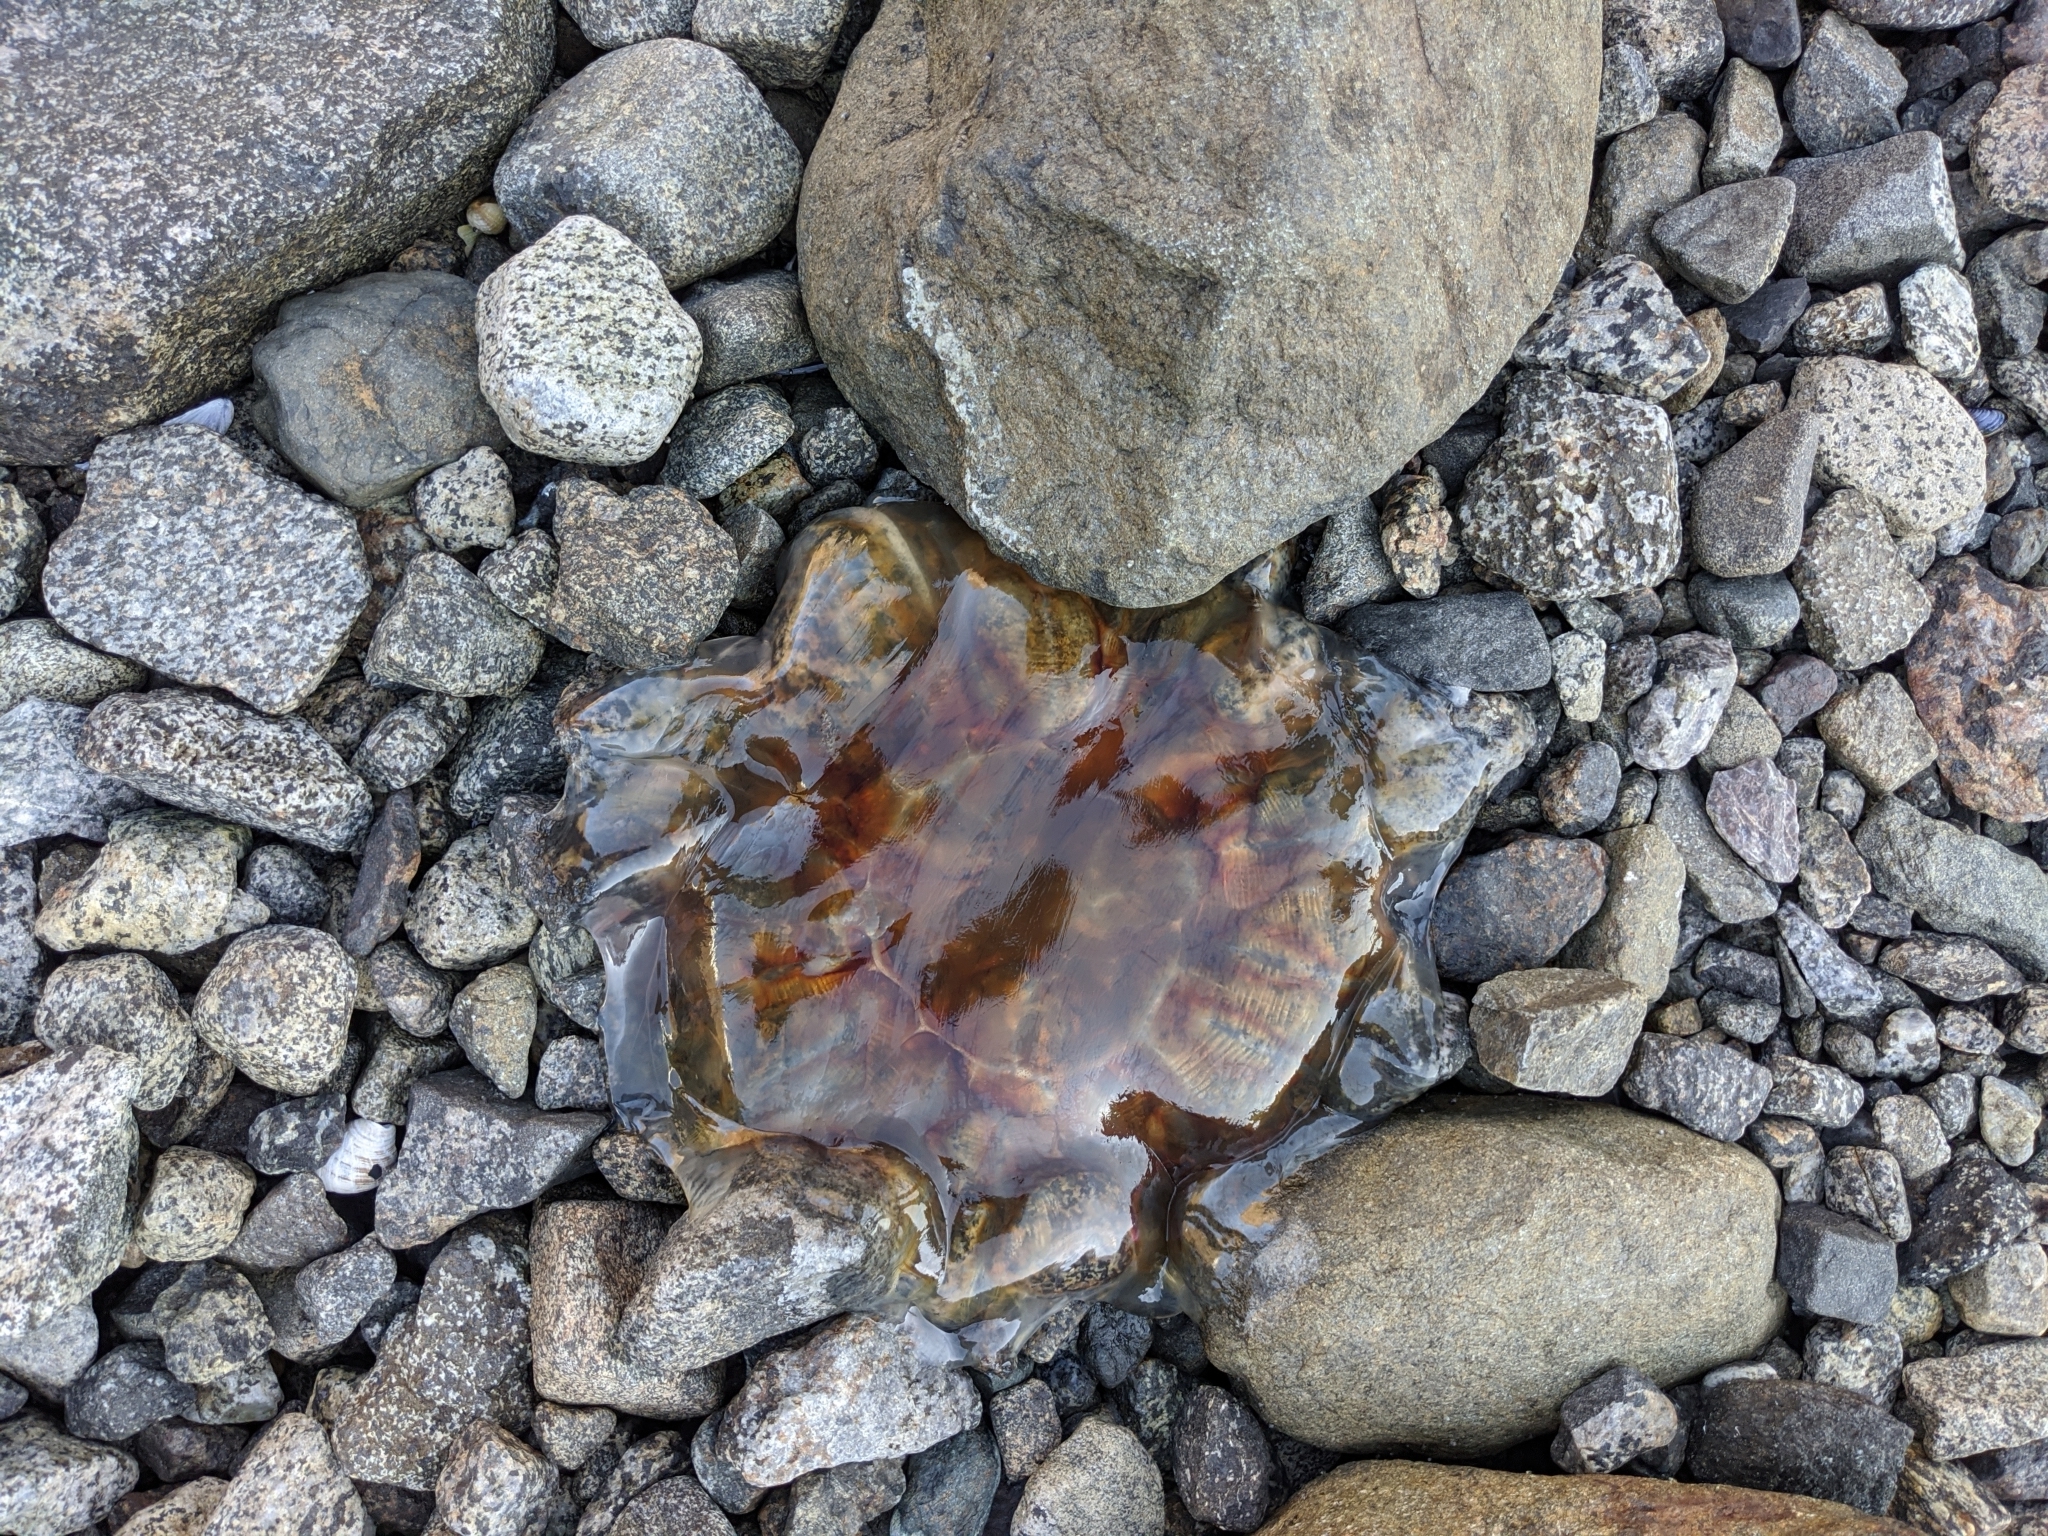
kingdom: Animalia
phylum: Cnidaria
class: Scyphozoa
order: Semaeostomeae
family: Cyaneidae
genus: Cyanea
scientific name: Cyanea capillata
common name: Lion's mane jellyfish
